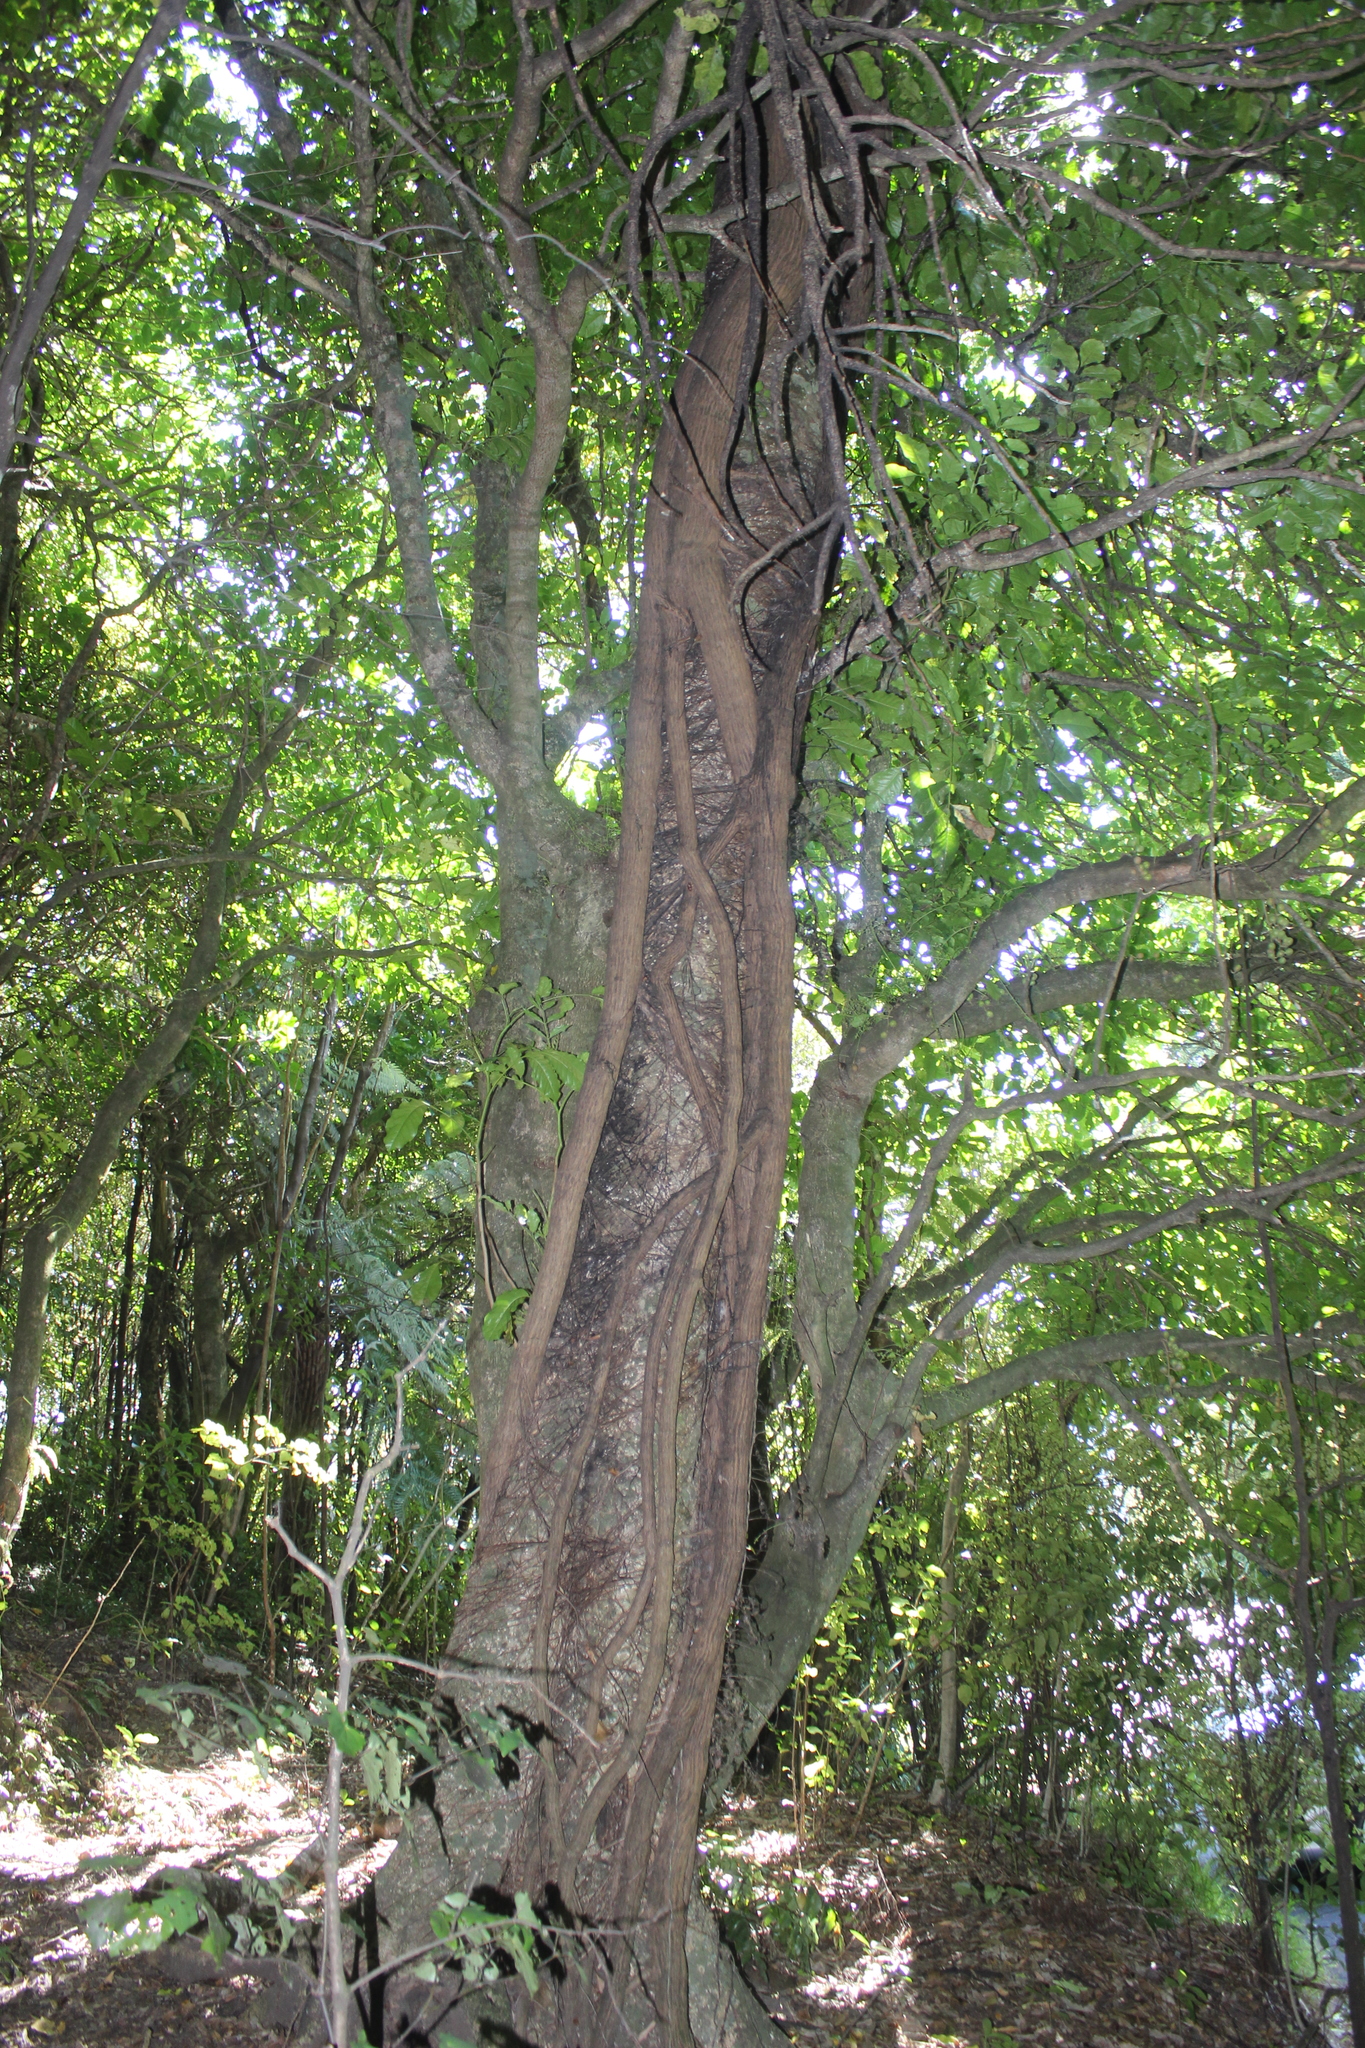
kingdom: Plantae
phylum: Tracheophyta
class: Magnoliopsida
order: Laurales
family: Atherospermataceae
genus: Laurelia
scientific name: Laurelia novae-zelandiae
